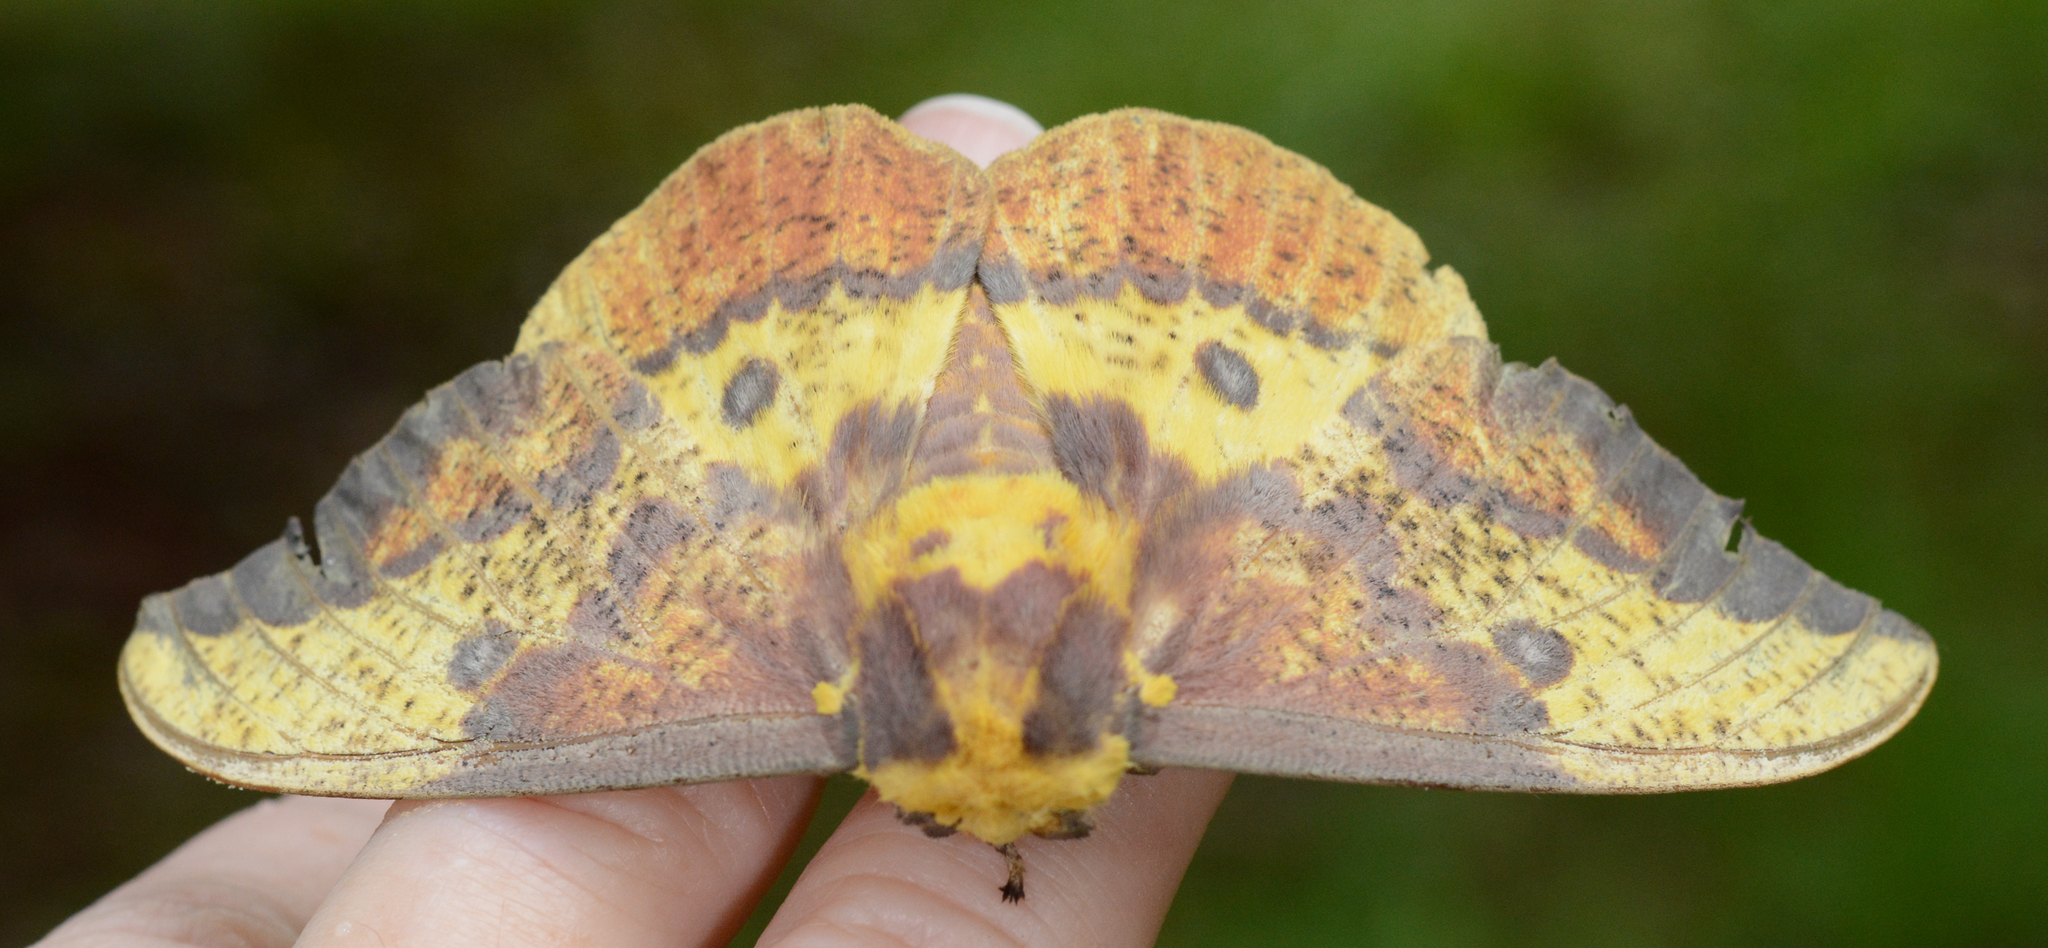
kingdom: Animalia
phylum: Arthropoda
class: Insecta
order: Lepidoptera
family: Saturniidae
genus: Eacles
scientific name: Eacles imperialis
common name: Imperial moth
